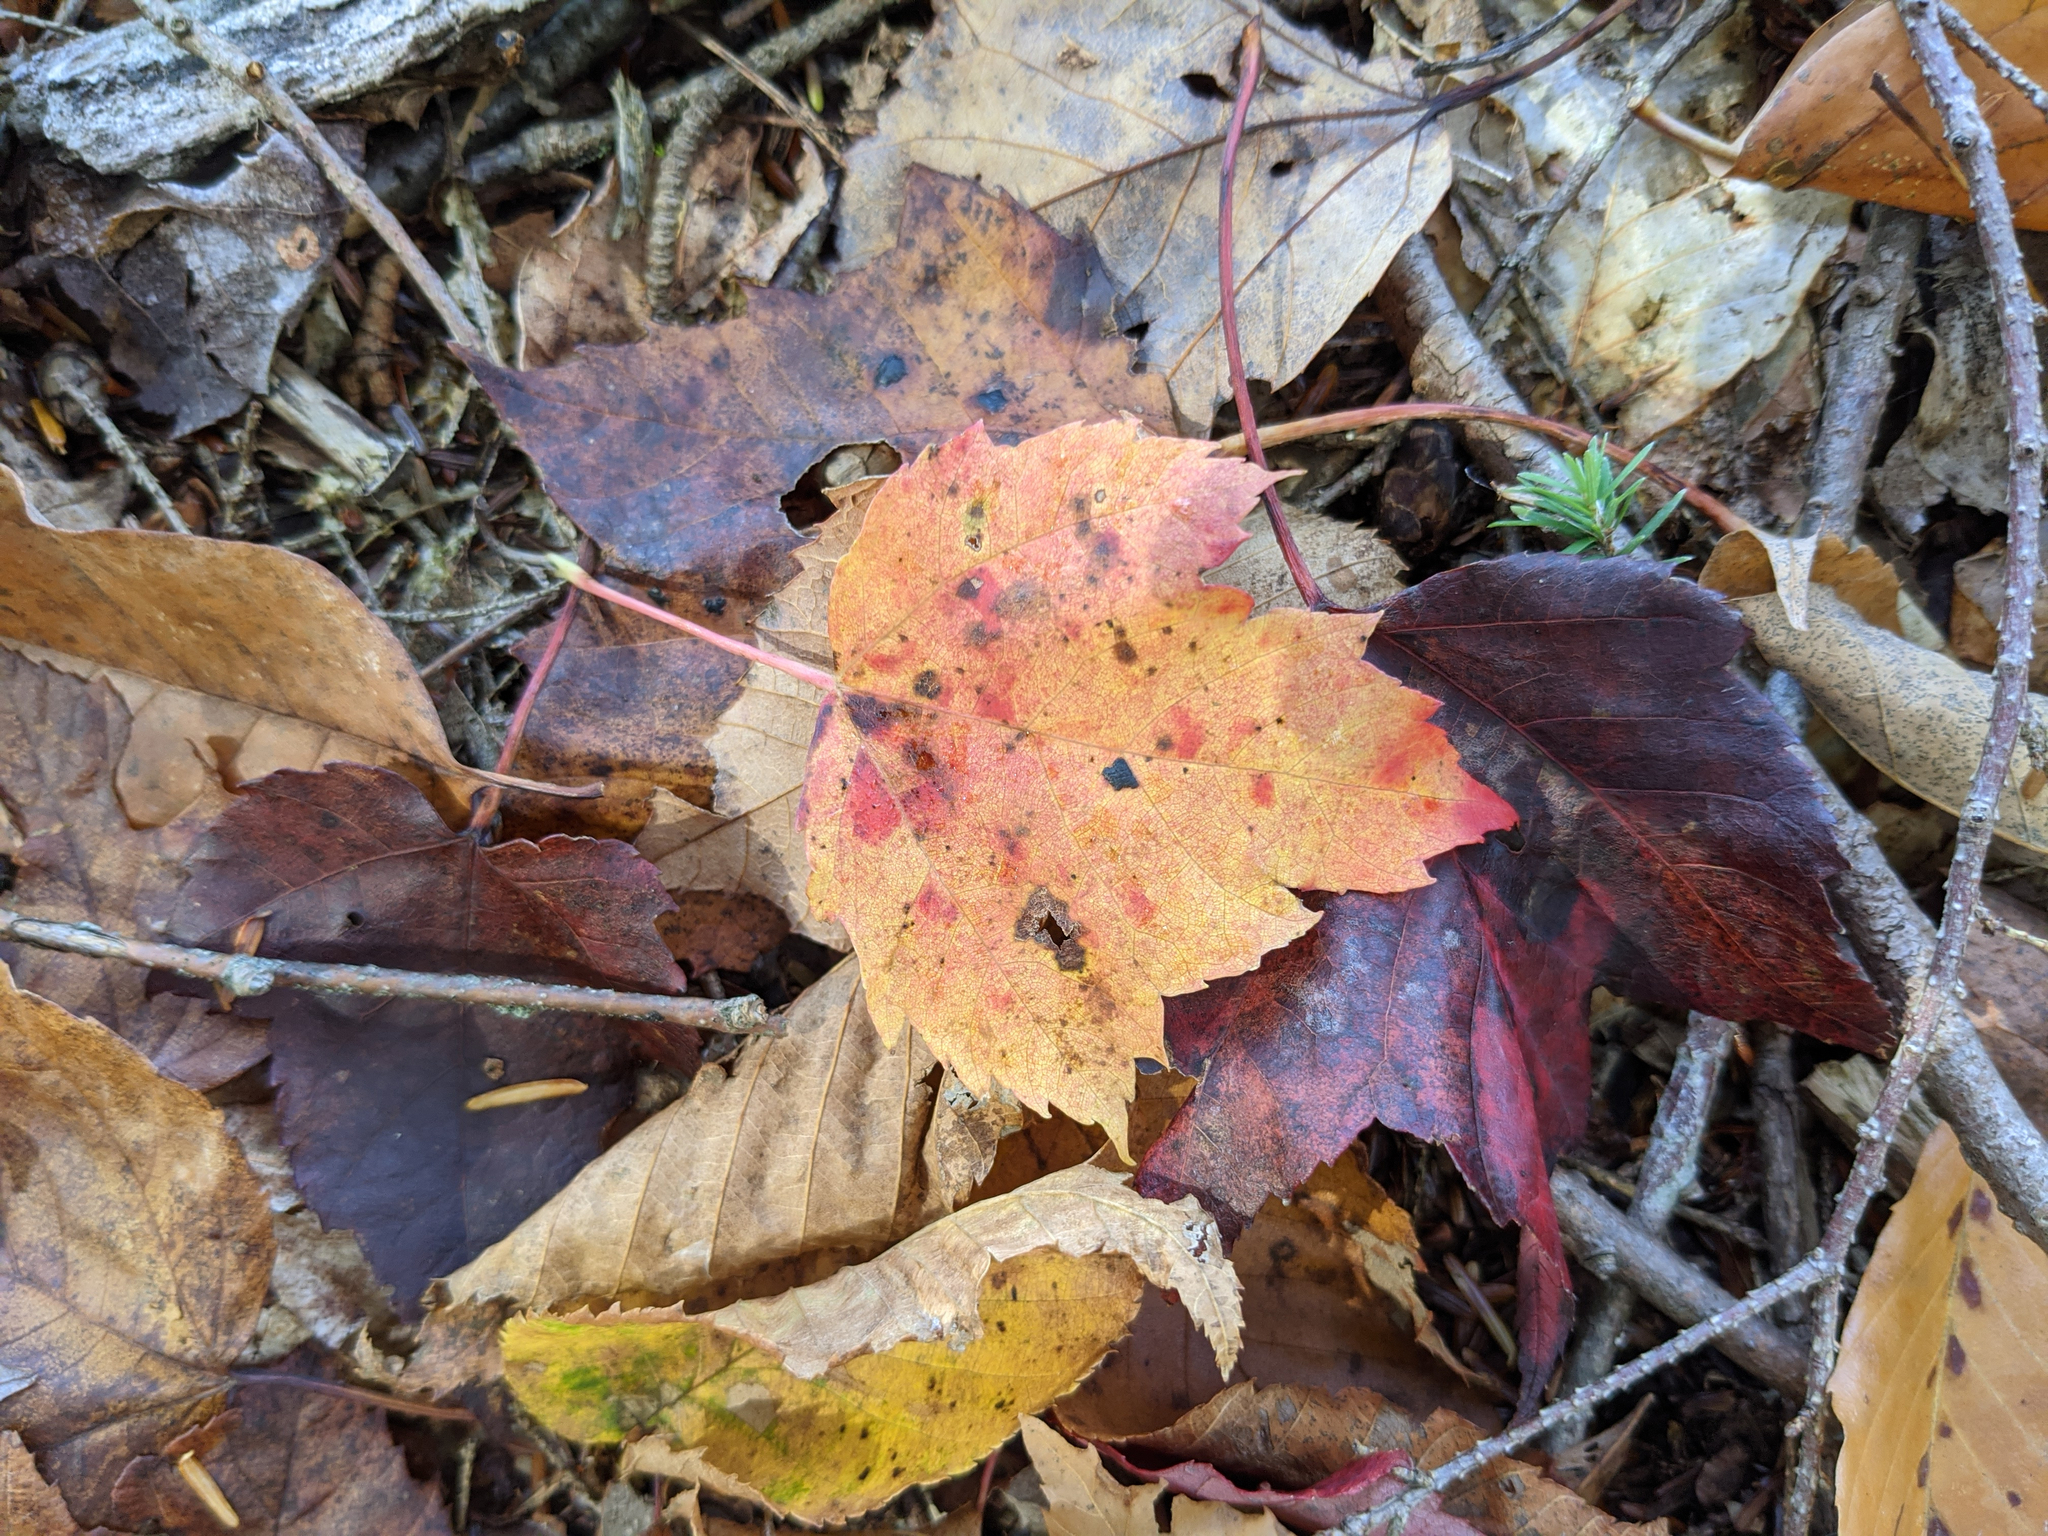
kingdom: Plantae
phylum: Tracheophyta
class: Magnoliopsida
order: Sapindales
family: Sapindaceae
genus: Acer
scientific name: Acer rubrum
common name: Red maple
